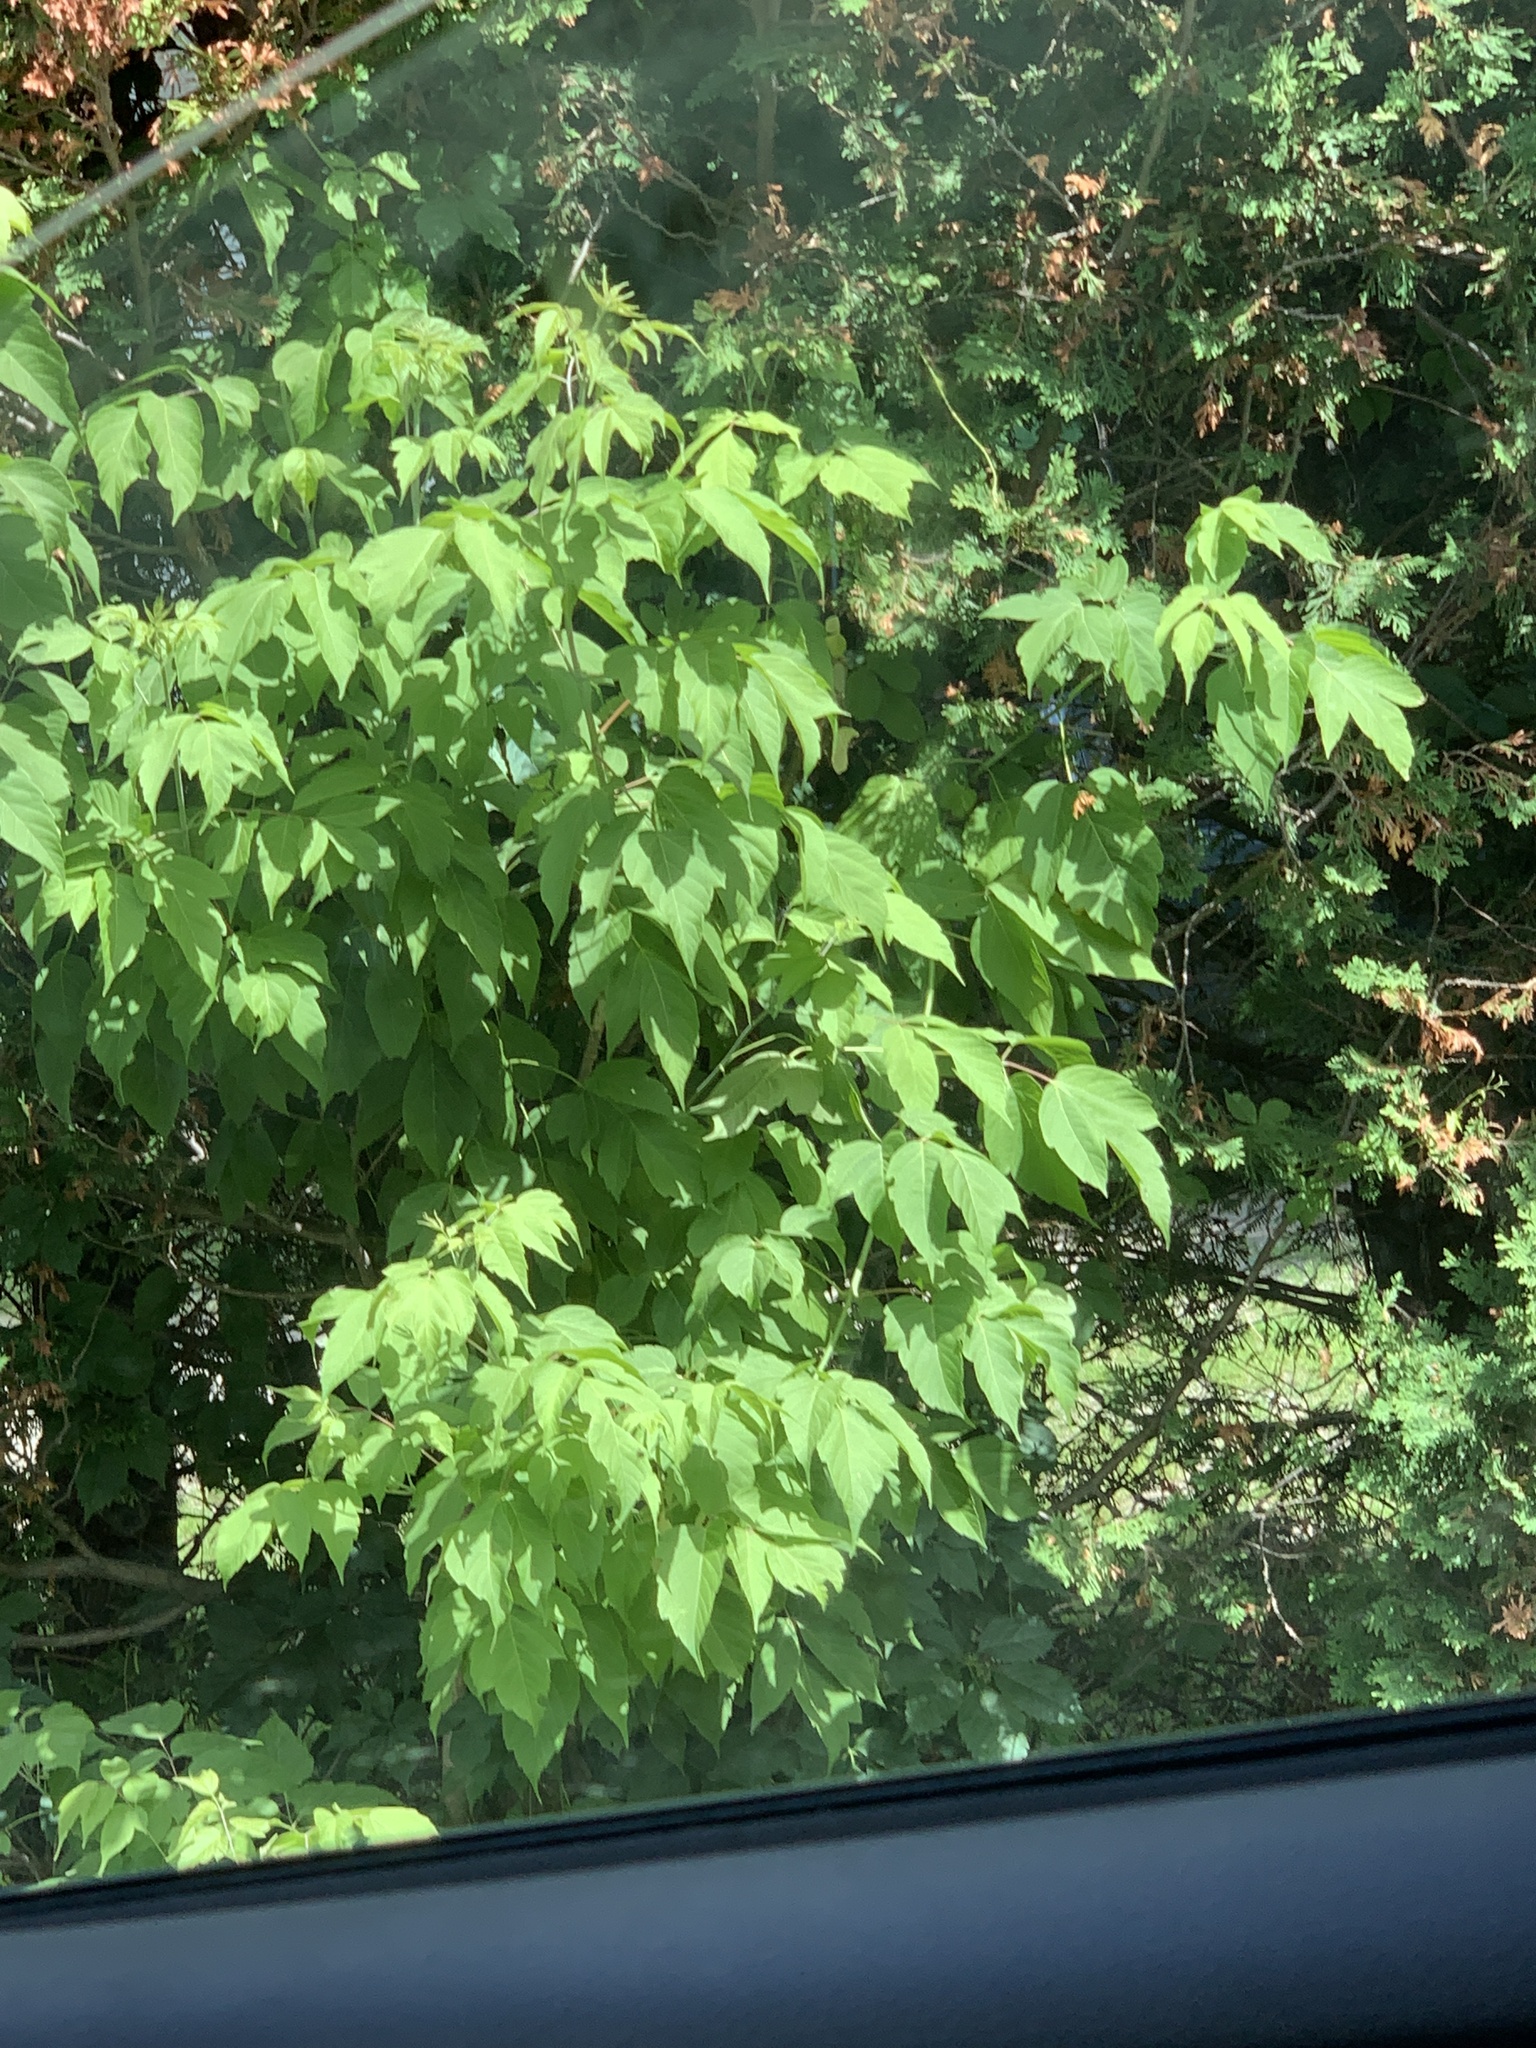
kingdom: Plantae
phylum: Tracheophyta
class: Magnoliopsida
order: Sapindales
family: Sapindaceae
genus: Acer
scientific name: Acer negundo
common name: Ashleaf maple
